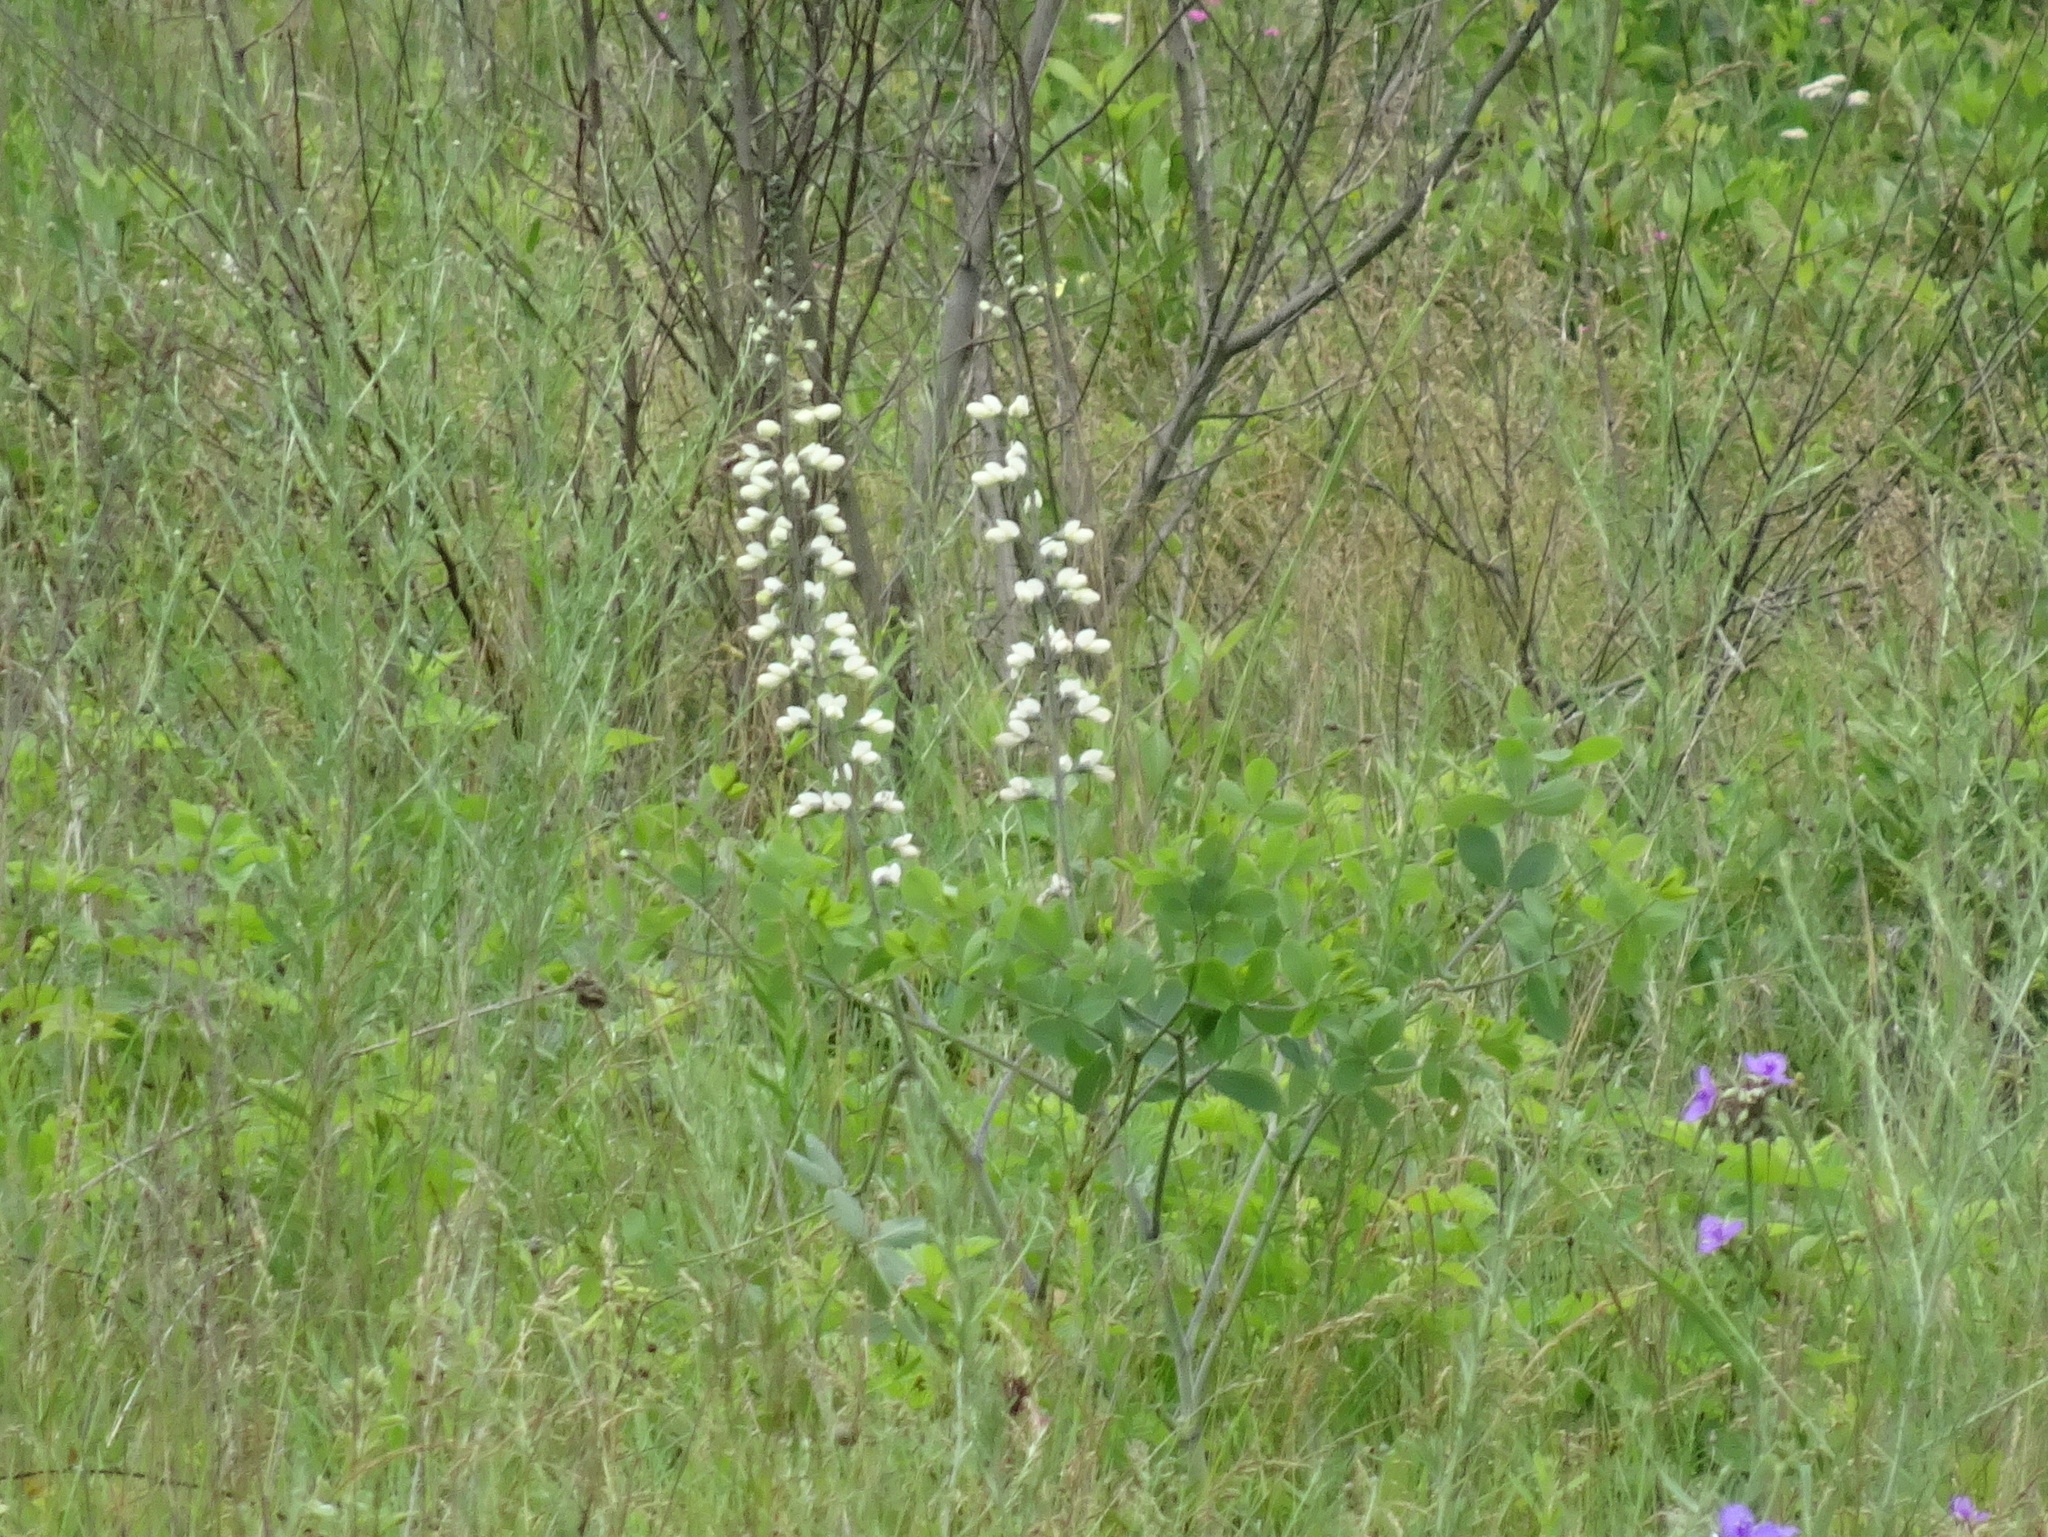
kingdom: Plantae
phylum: Tracheophyta
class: Magnoliopsida
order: Fabales
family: Fabaceae
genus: Baptisia
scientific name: Baptisia alba
